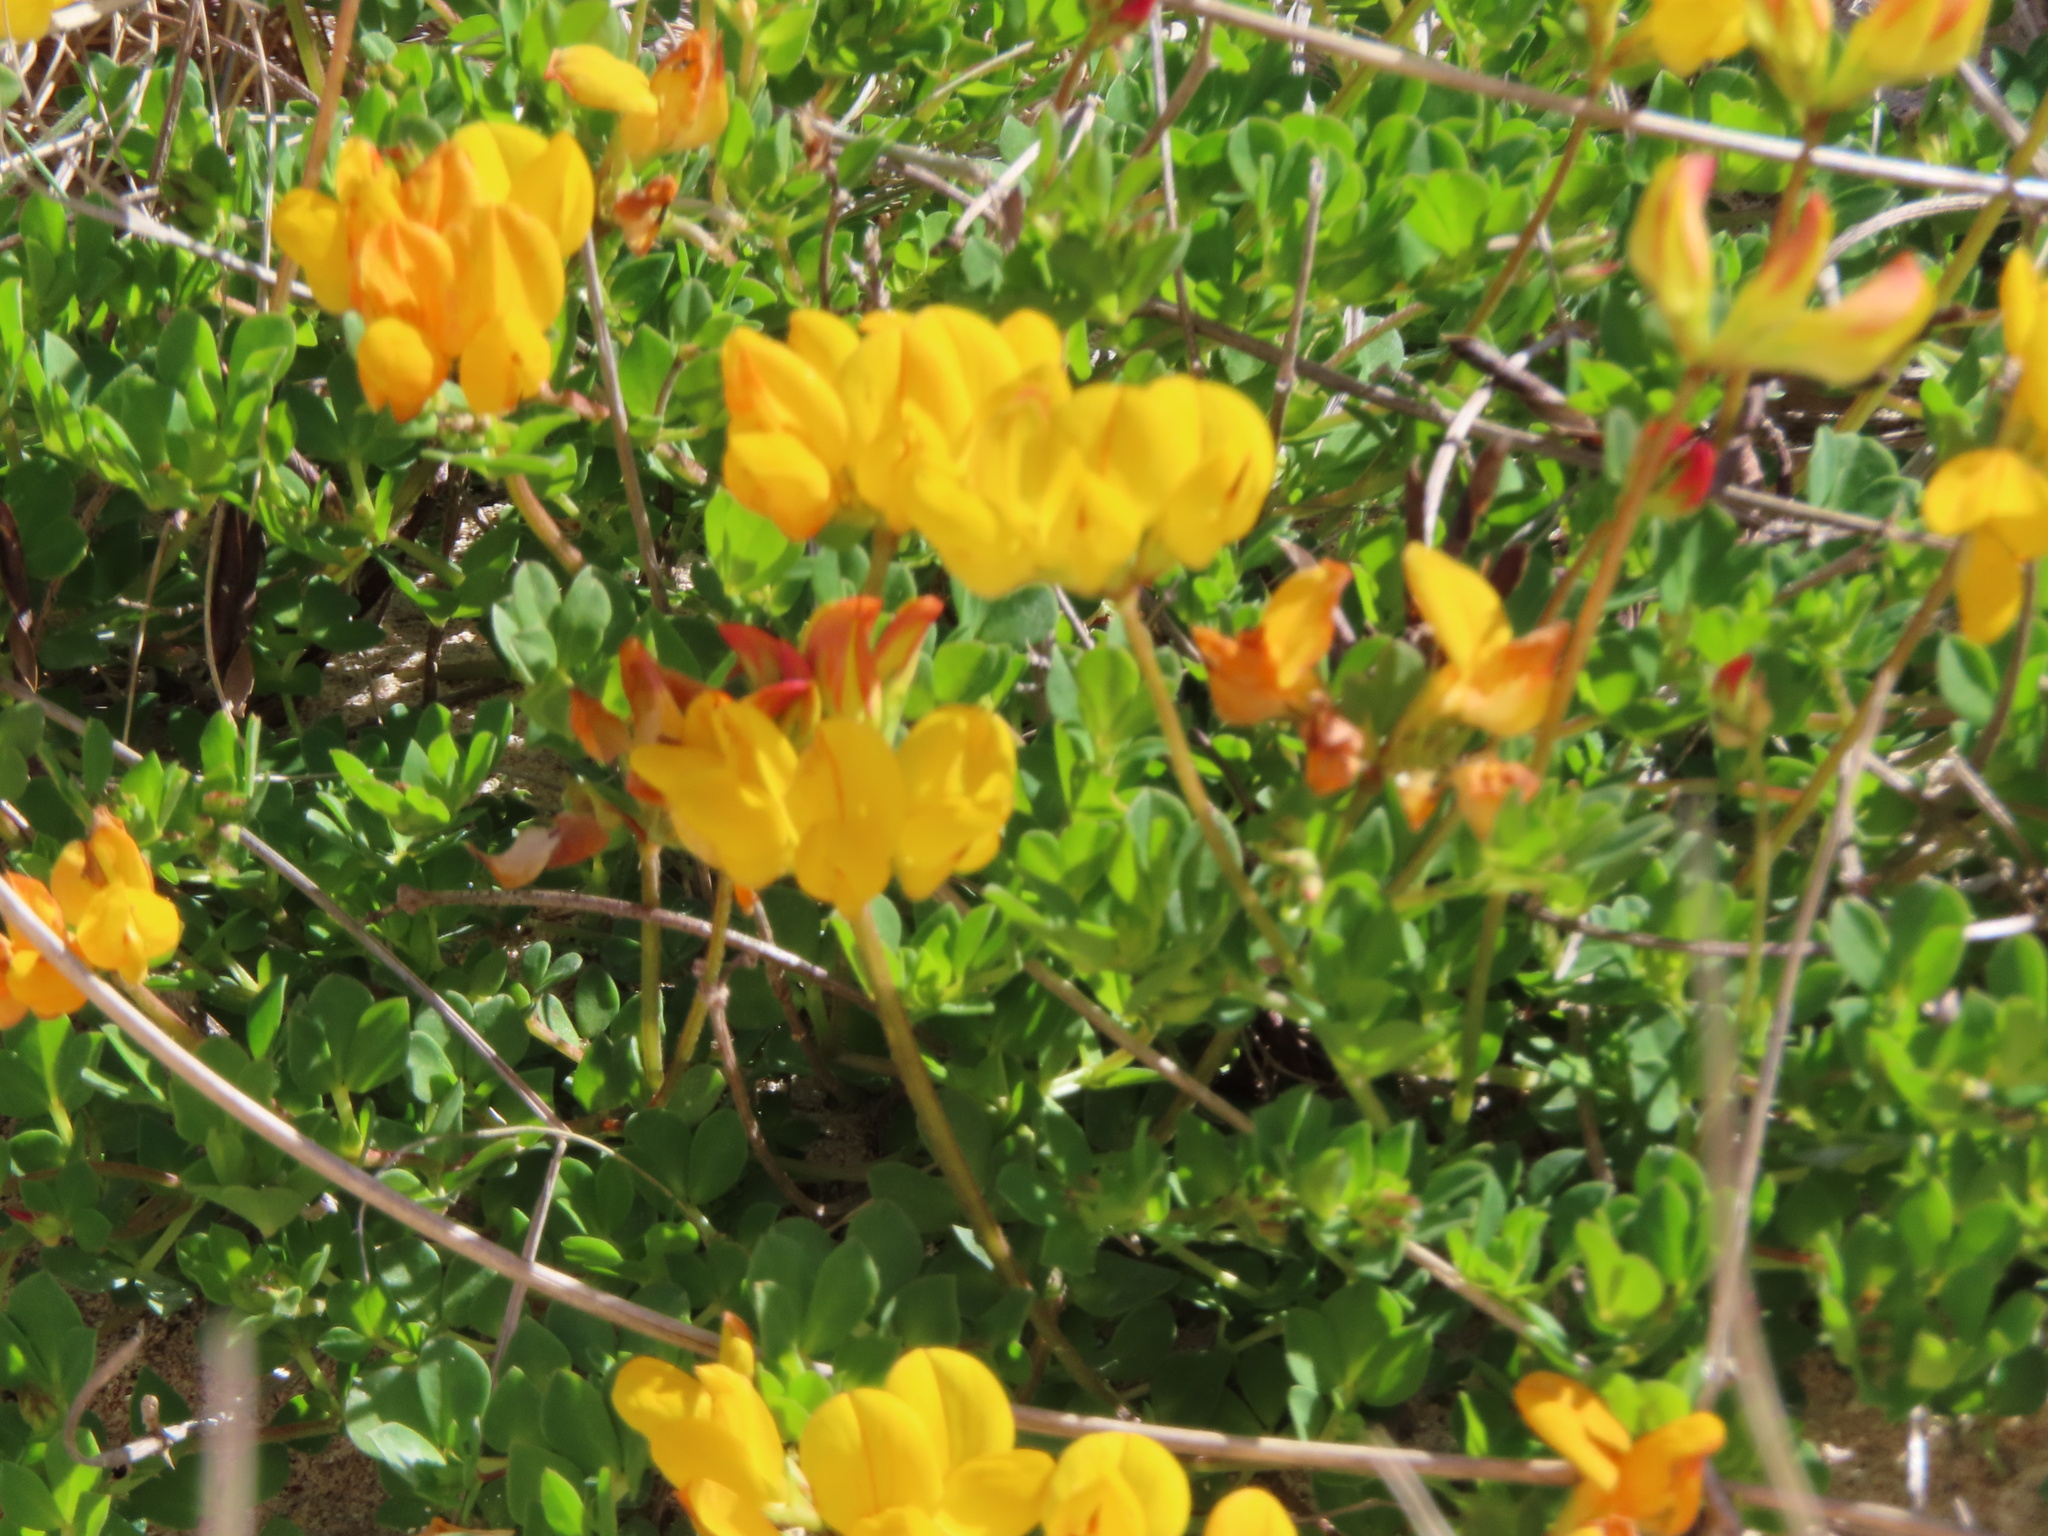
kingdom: Plantae
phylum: Tracheophyta
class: Magnoliopsida
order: Fabales
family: Fabaceae
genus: Lotus
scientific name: Lotus corniculatus
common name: Common bird's-foot-trefoil
